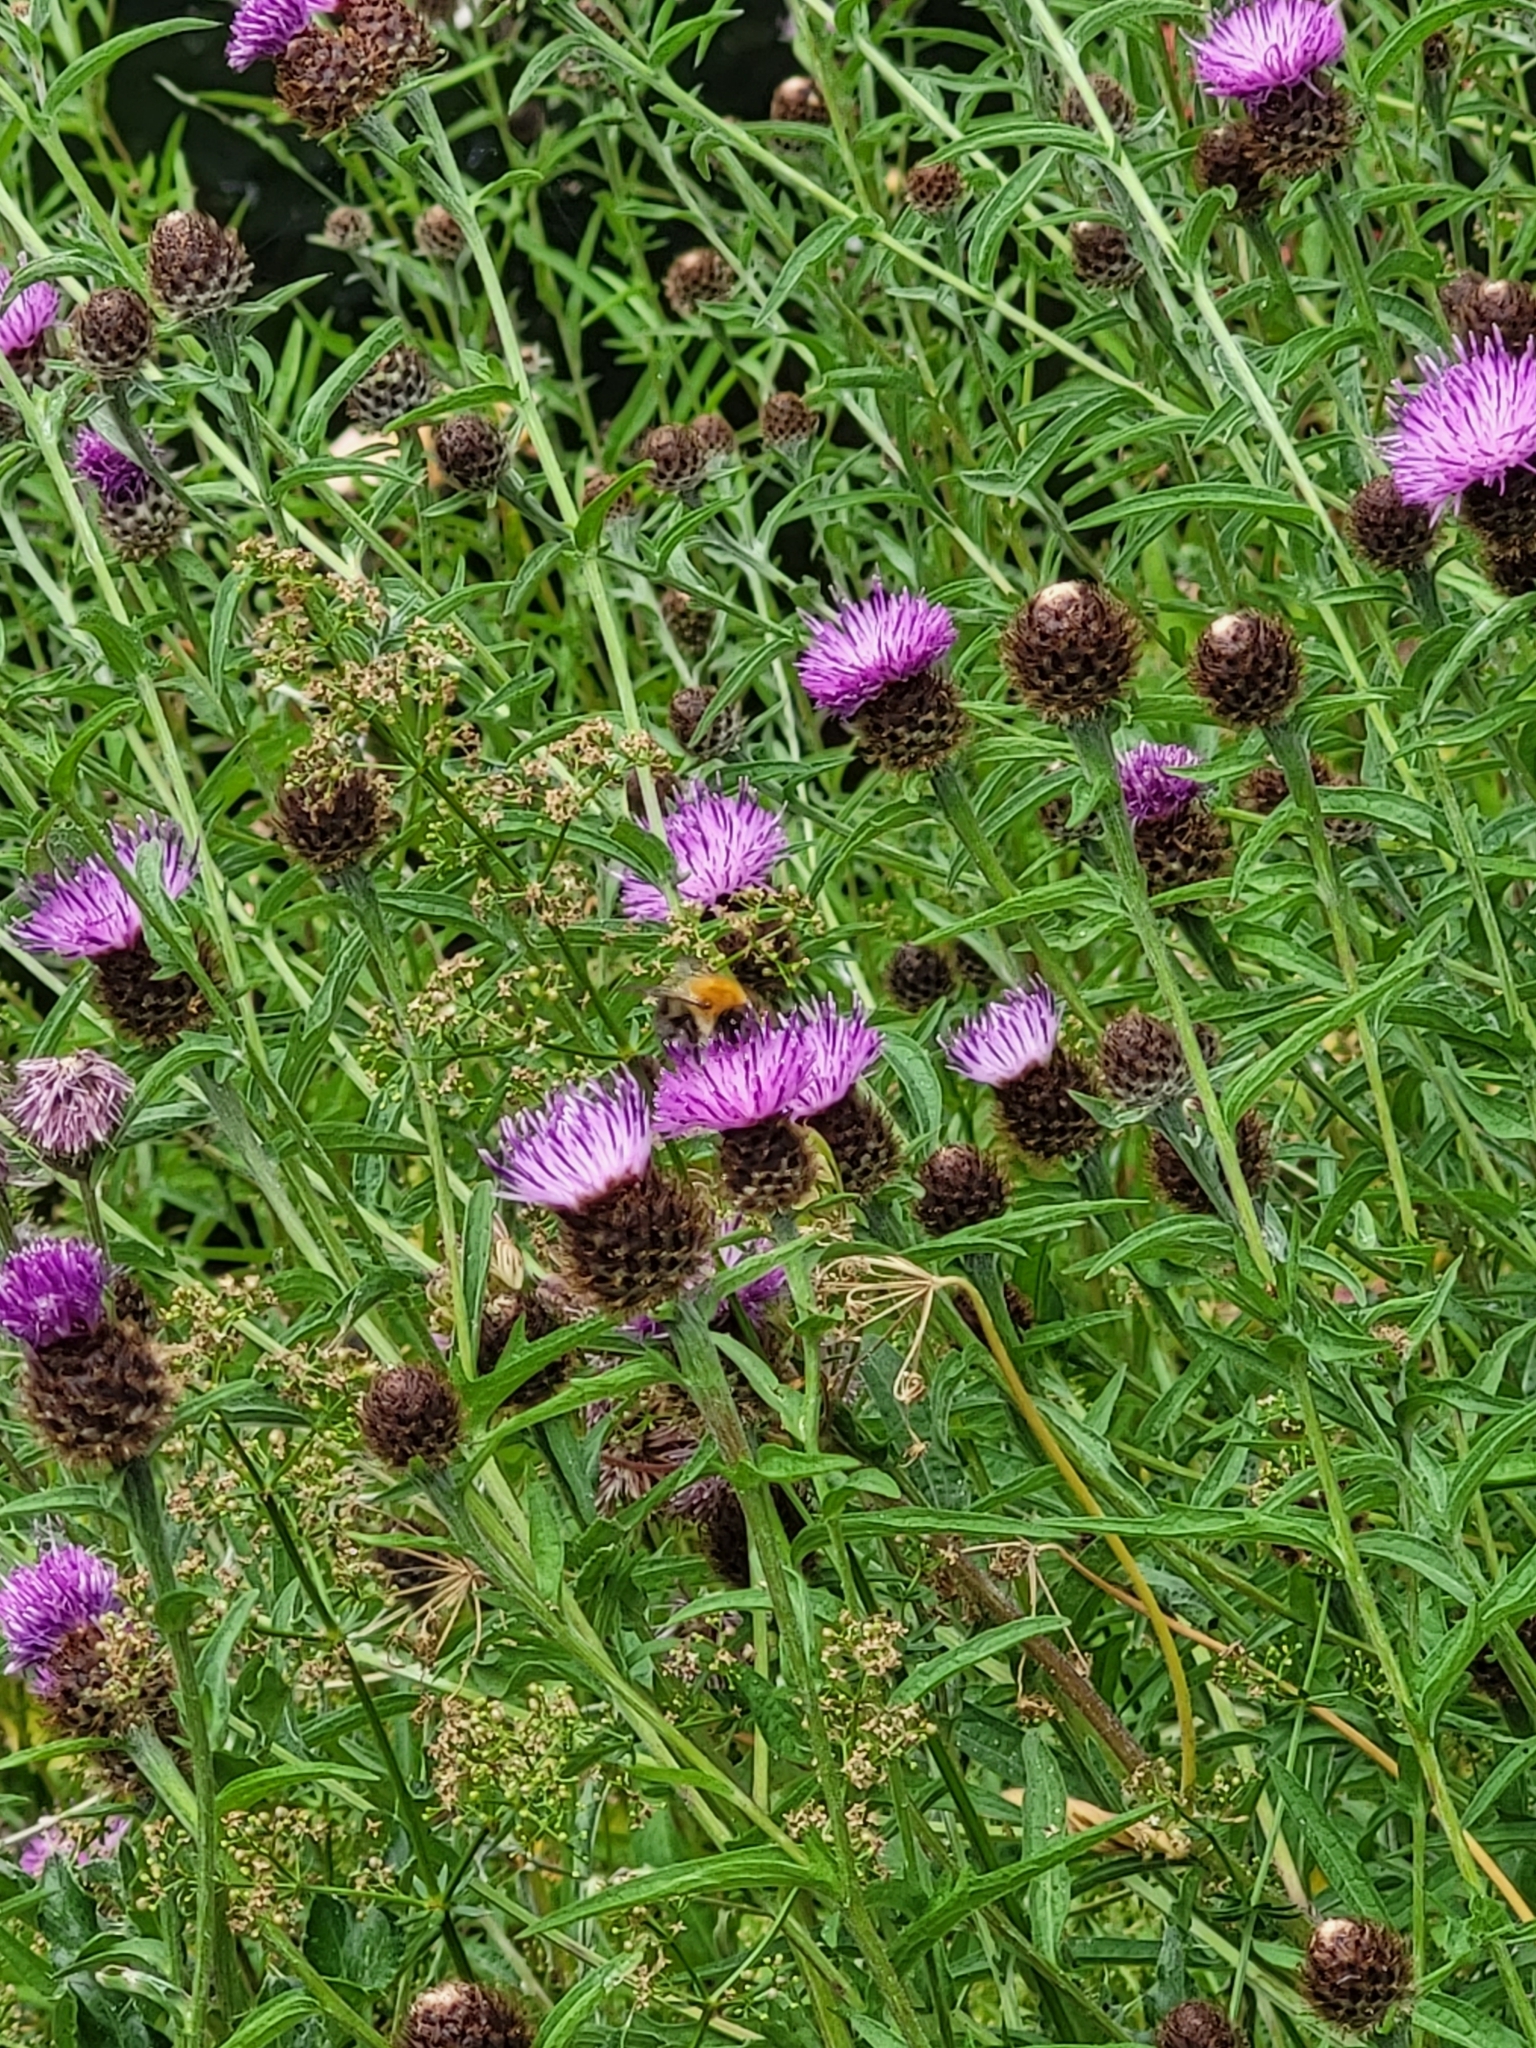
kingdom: Plantae
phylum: Tracheophyta
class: Magnoliopsida
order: Asterales
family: Asteraceae
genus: Centaurea
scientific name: Centaurea nigra
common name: Lesser knapweed
